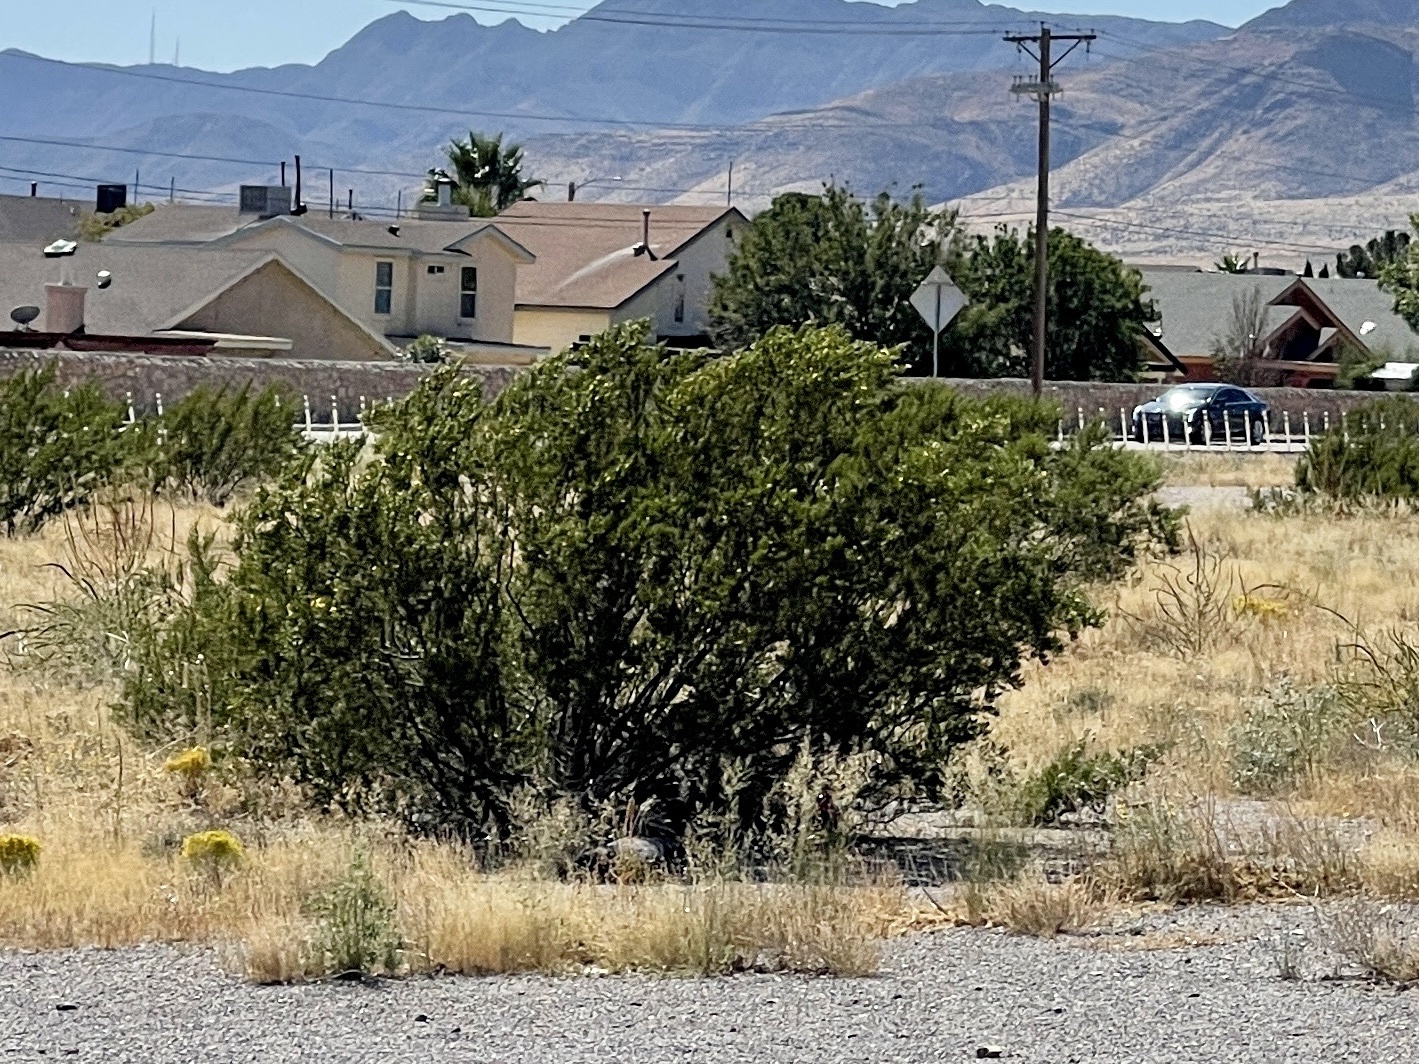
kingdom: Plantae
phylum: Tracheophyta
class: Magnoliopsida
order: Zygophyllales
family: Zygophyllaceae
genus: Larrea
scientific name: Larrea tridentata
